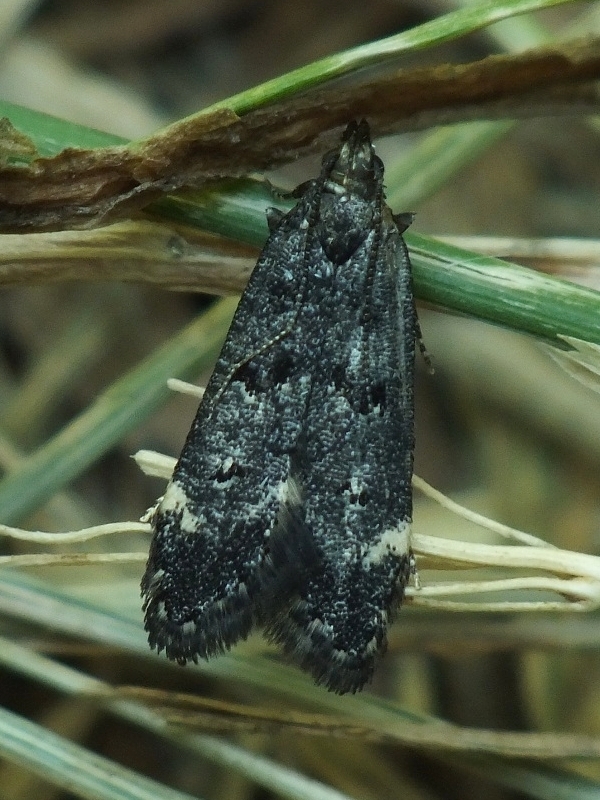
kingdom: Animalia
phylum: Arthropoda
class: Insecta
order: Lepidoptera
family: Gelechiidae
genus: Acanthophila
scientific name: Acanthophila alacella
